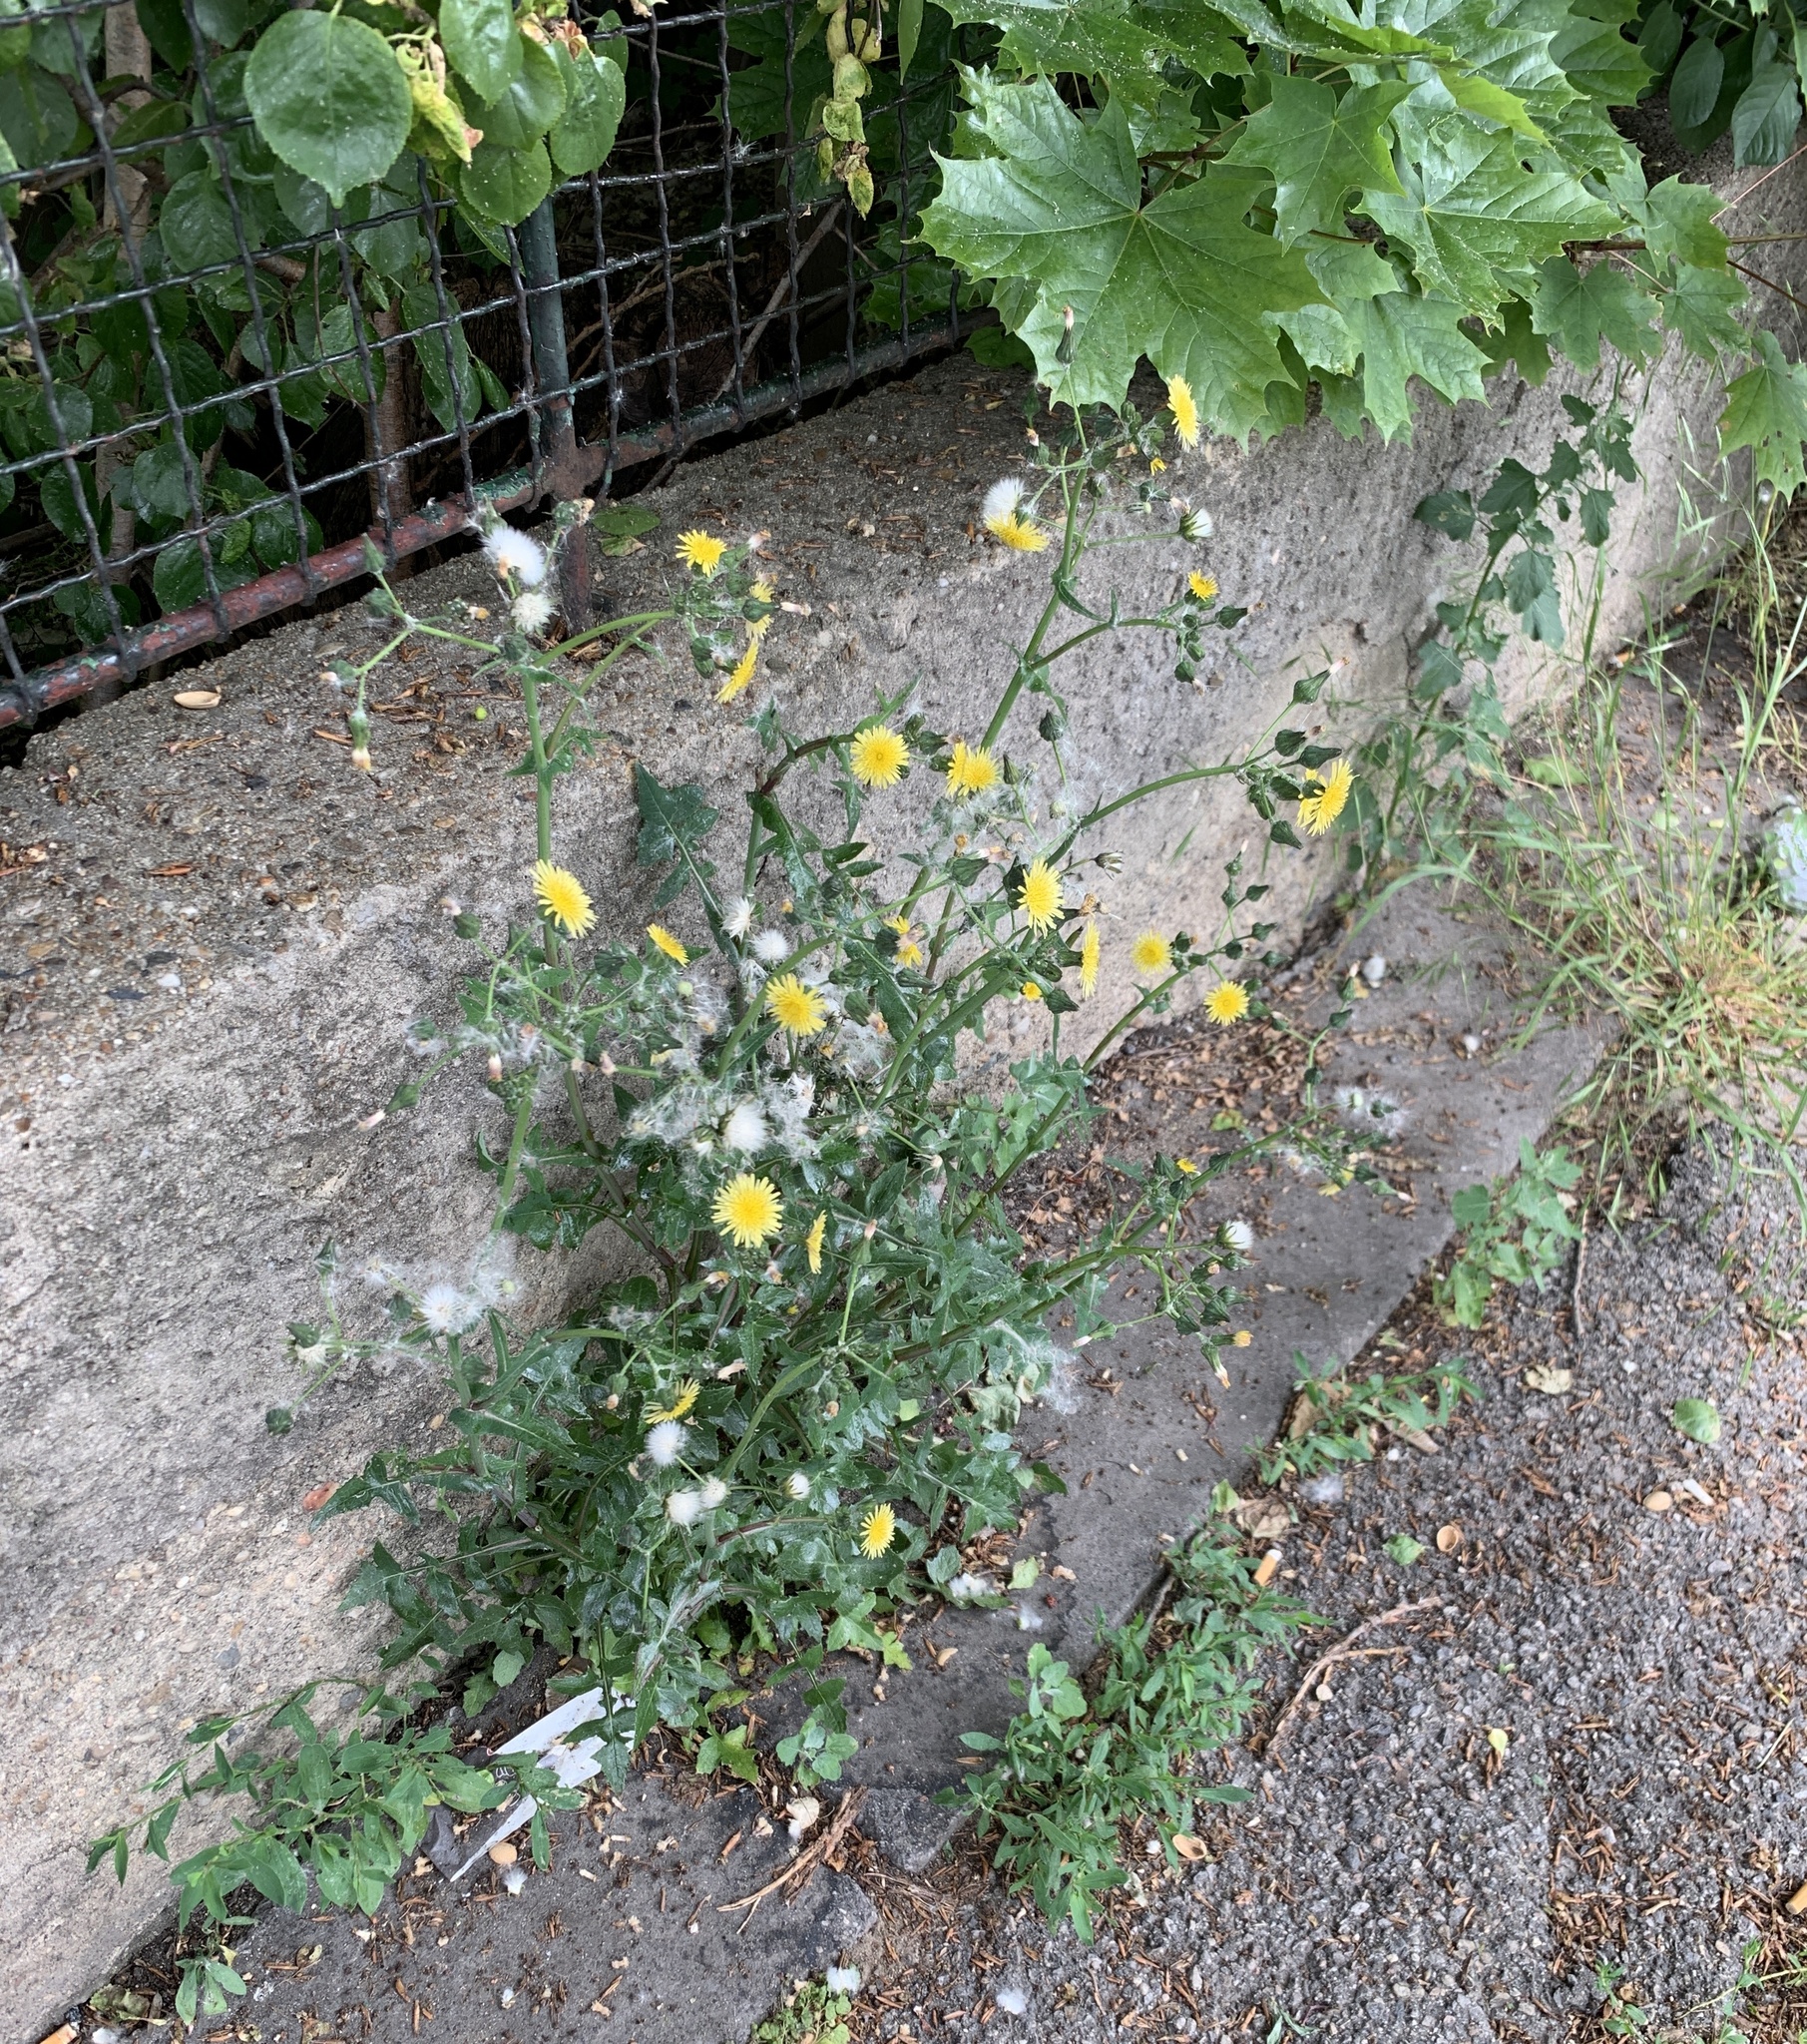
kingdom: Plantae
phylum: Tracheophyta
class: Magnoliopsida
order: Asterales
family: Asteraceae
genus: Sonchus
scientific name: Sonchus oleraceus
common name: Common sowthistle
